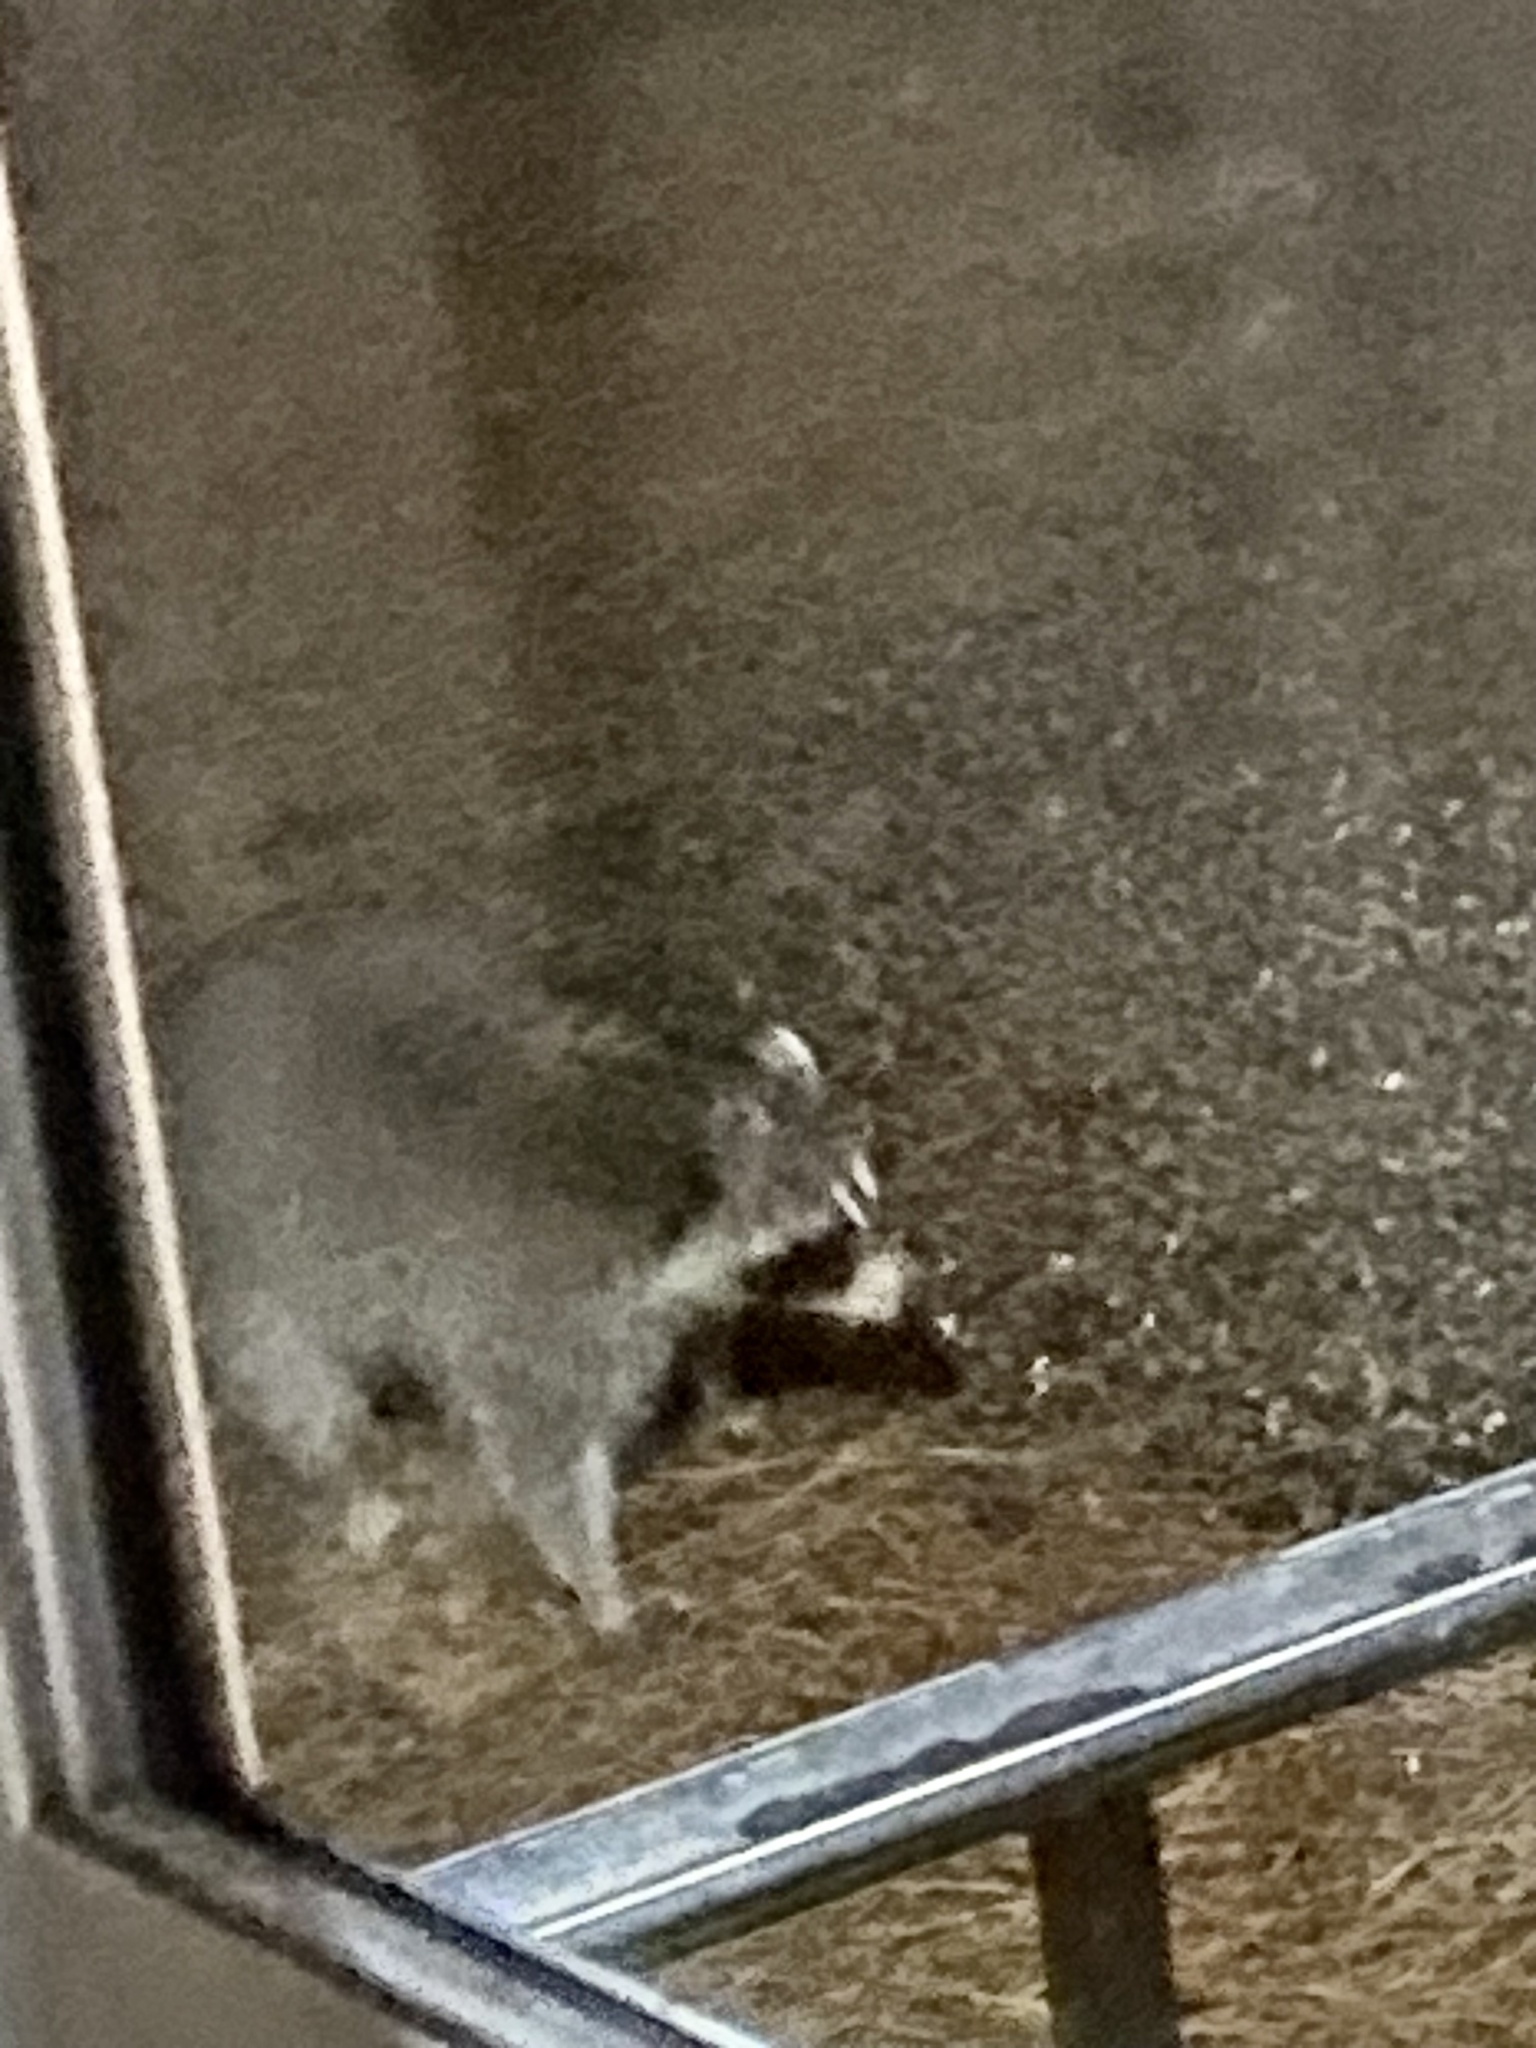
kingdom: Animalia
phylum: Chordata
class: Mammalia
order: Carnivora
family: Procyonidae
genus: Procyon
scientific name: Procyon lotor
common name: Raccoon
